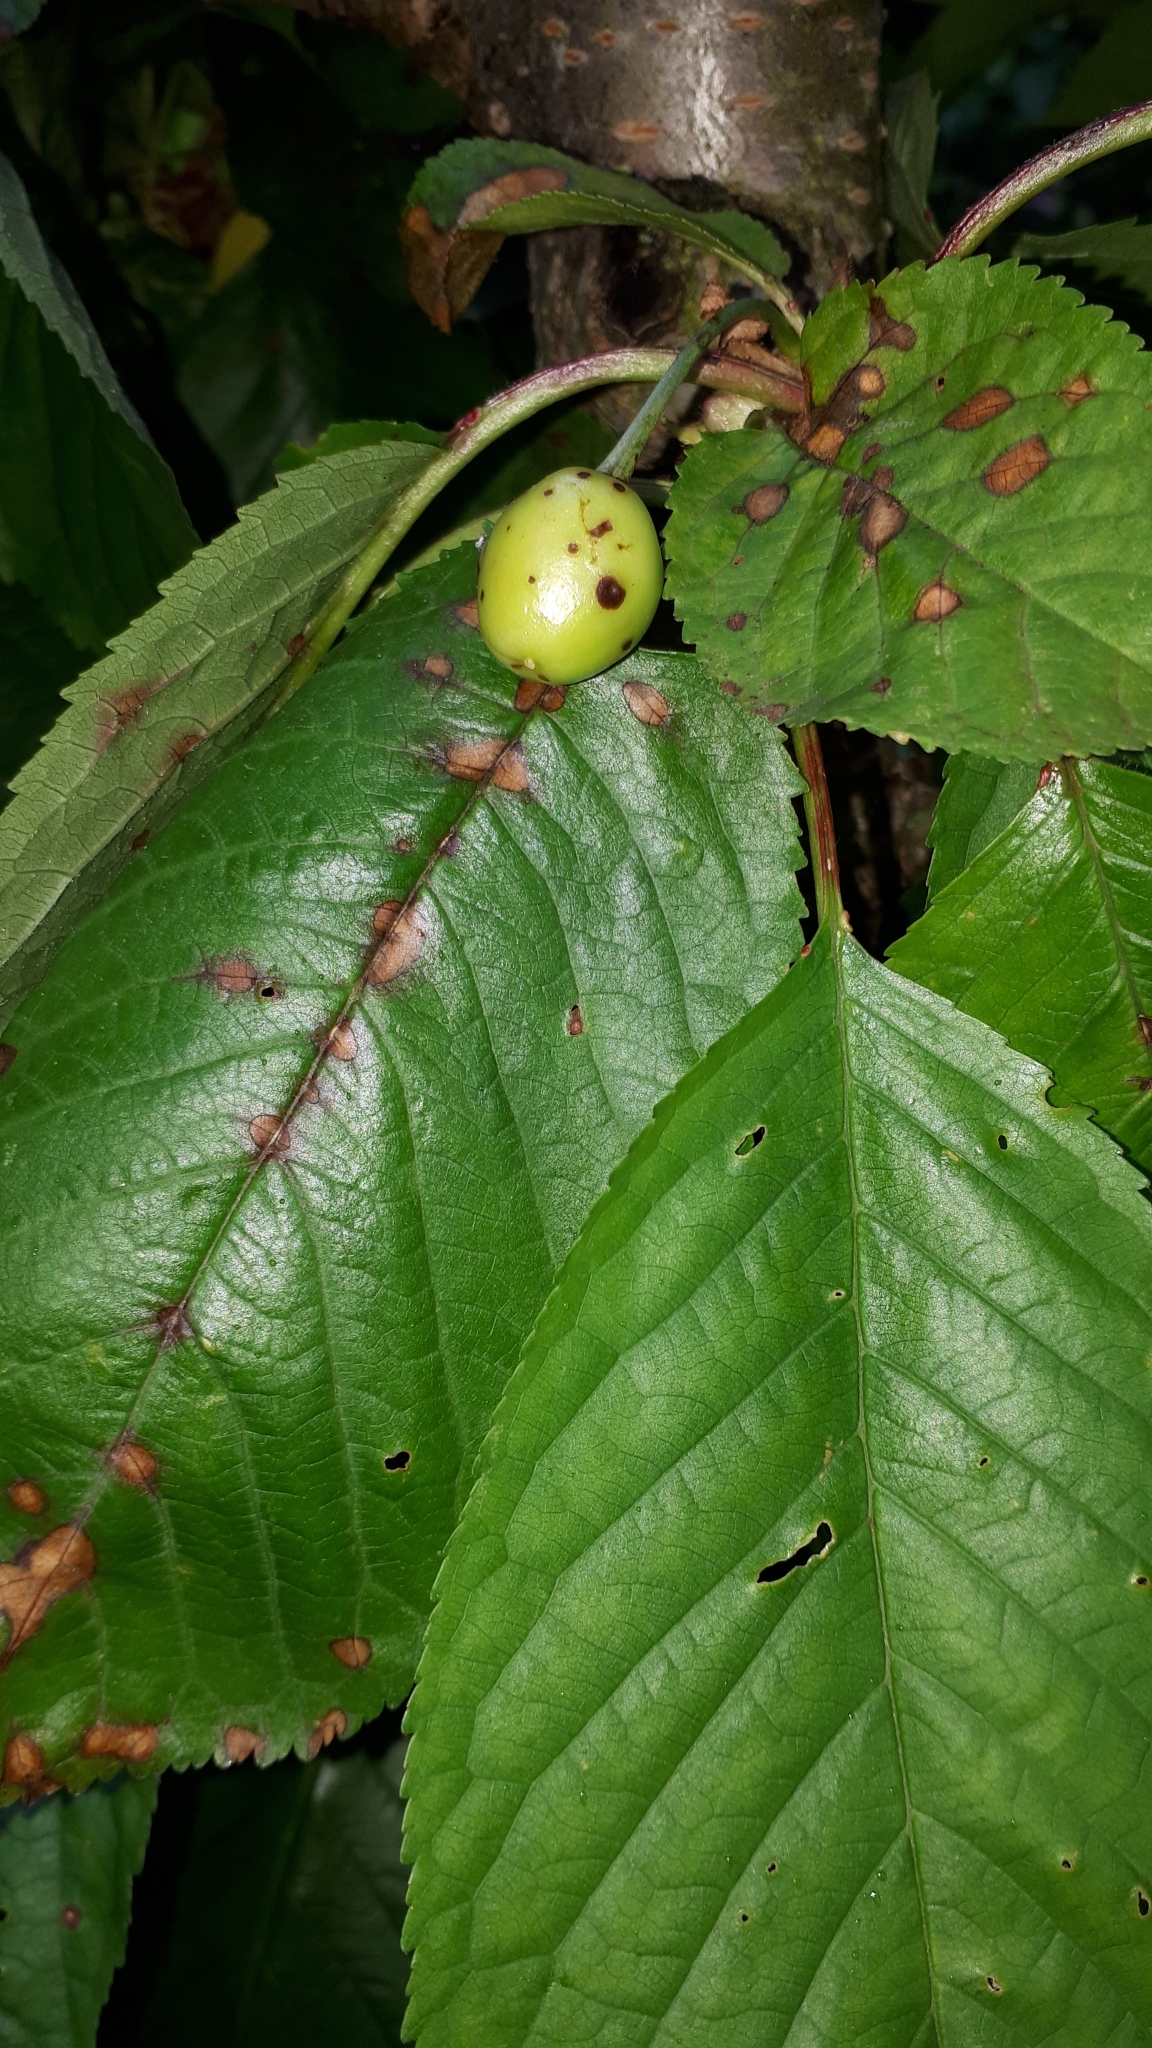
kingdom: Fungi
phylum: Ascomycota
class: Dothideomycetes
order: Mycosphaerellales
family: Mycosphaerellaceae
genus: Stigmina
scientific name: Stigmina carpophila
